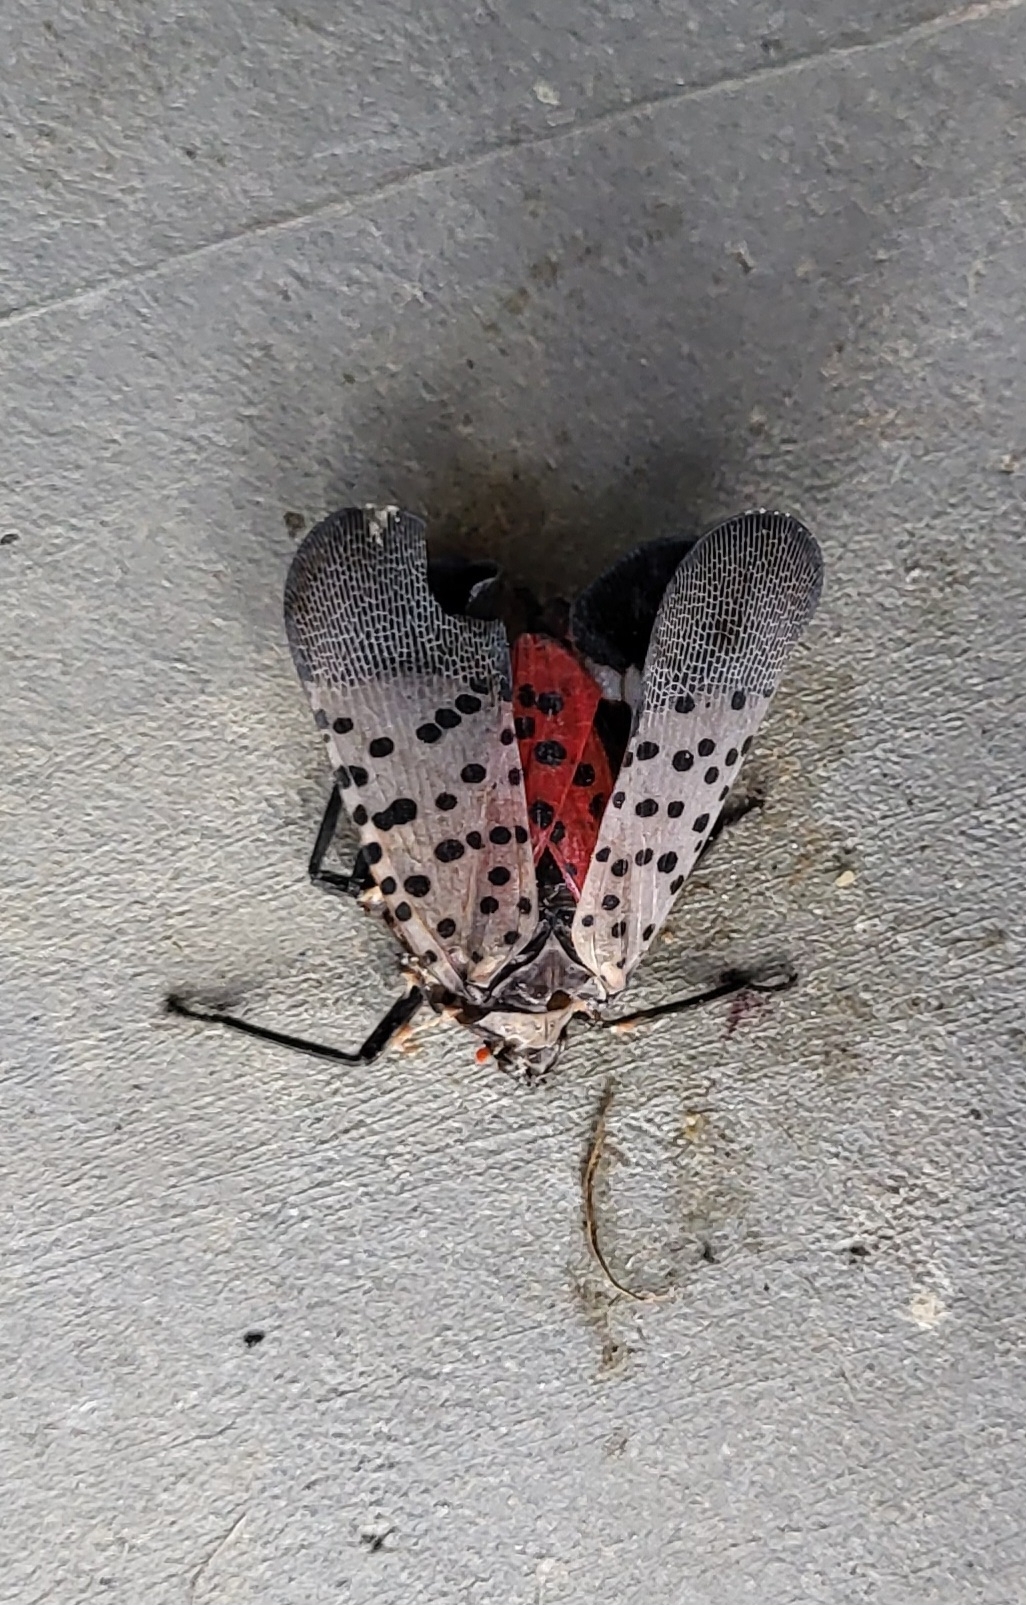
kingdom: Animalia
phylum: Arthropoda
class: Insecta
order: Hemiptera
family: Fulgoridae
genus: Lycorma
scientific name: Lycorma delicatula
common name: Spotted lanternfly
